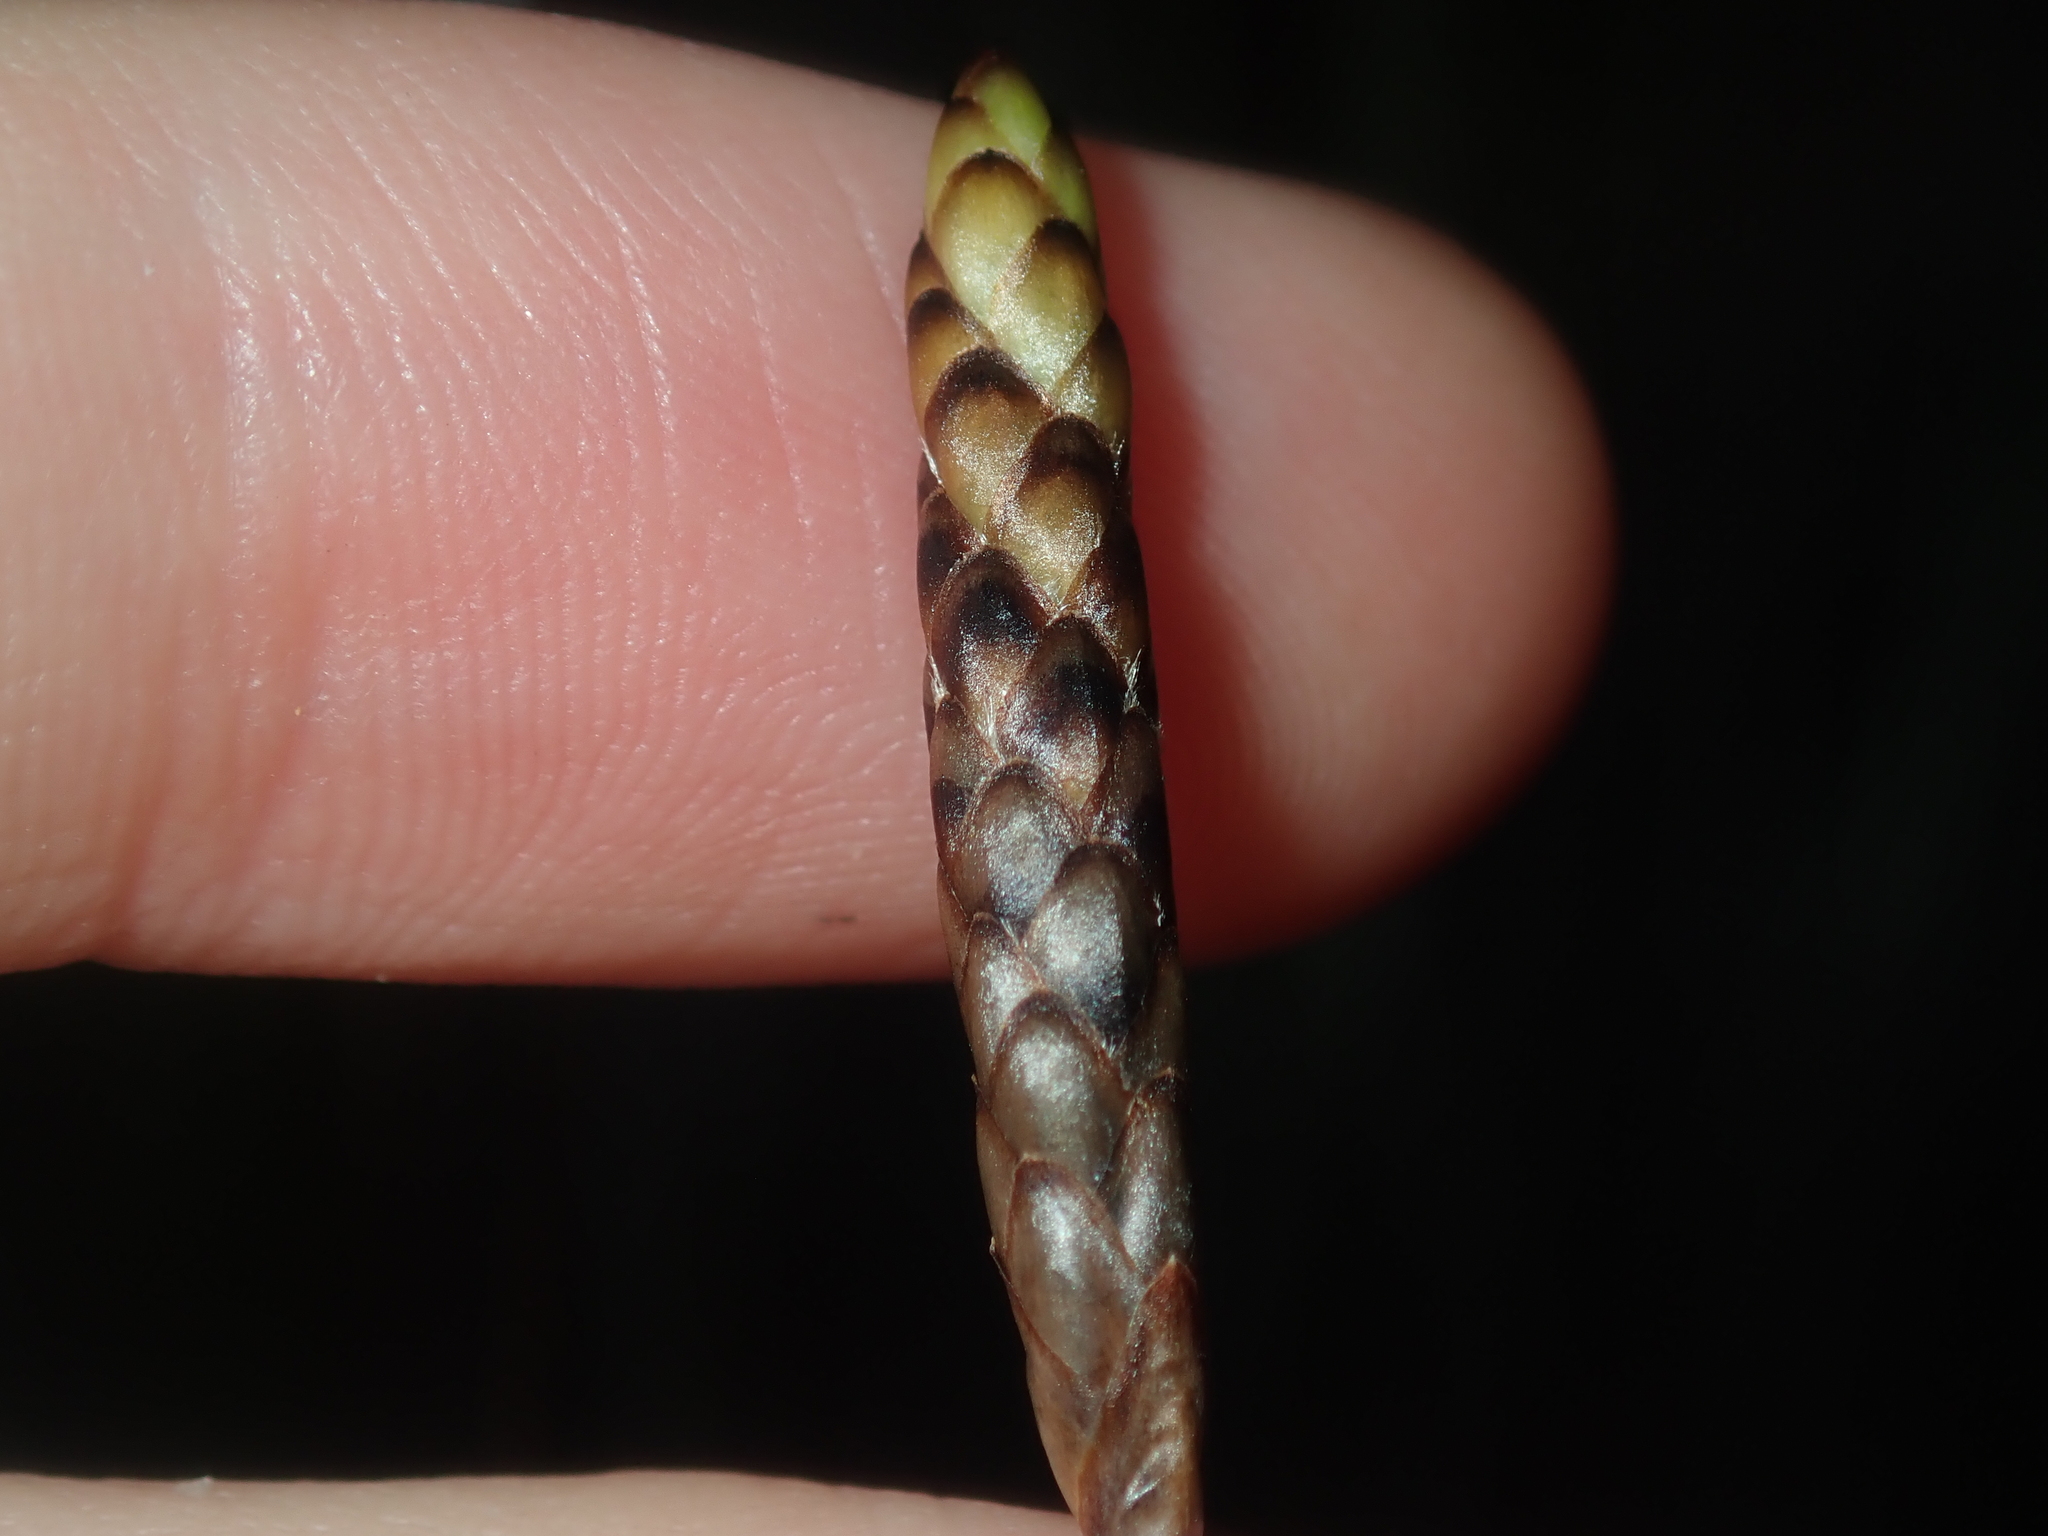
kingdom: Plantae
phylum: Tracheophyta
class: Liliopsida
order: Poales
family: Ecdeiocoleaceae
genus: Ecdeiocolea
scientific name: Ecdeiocolea rigens
